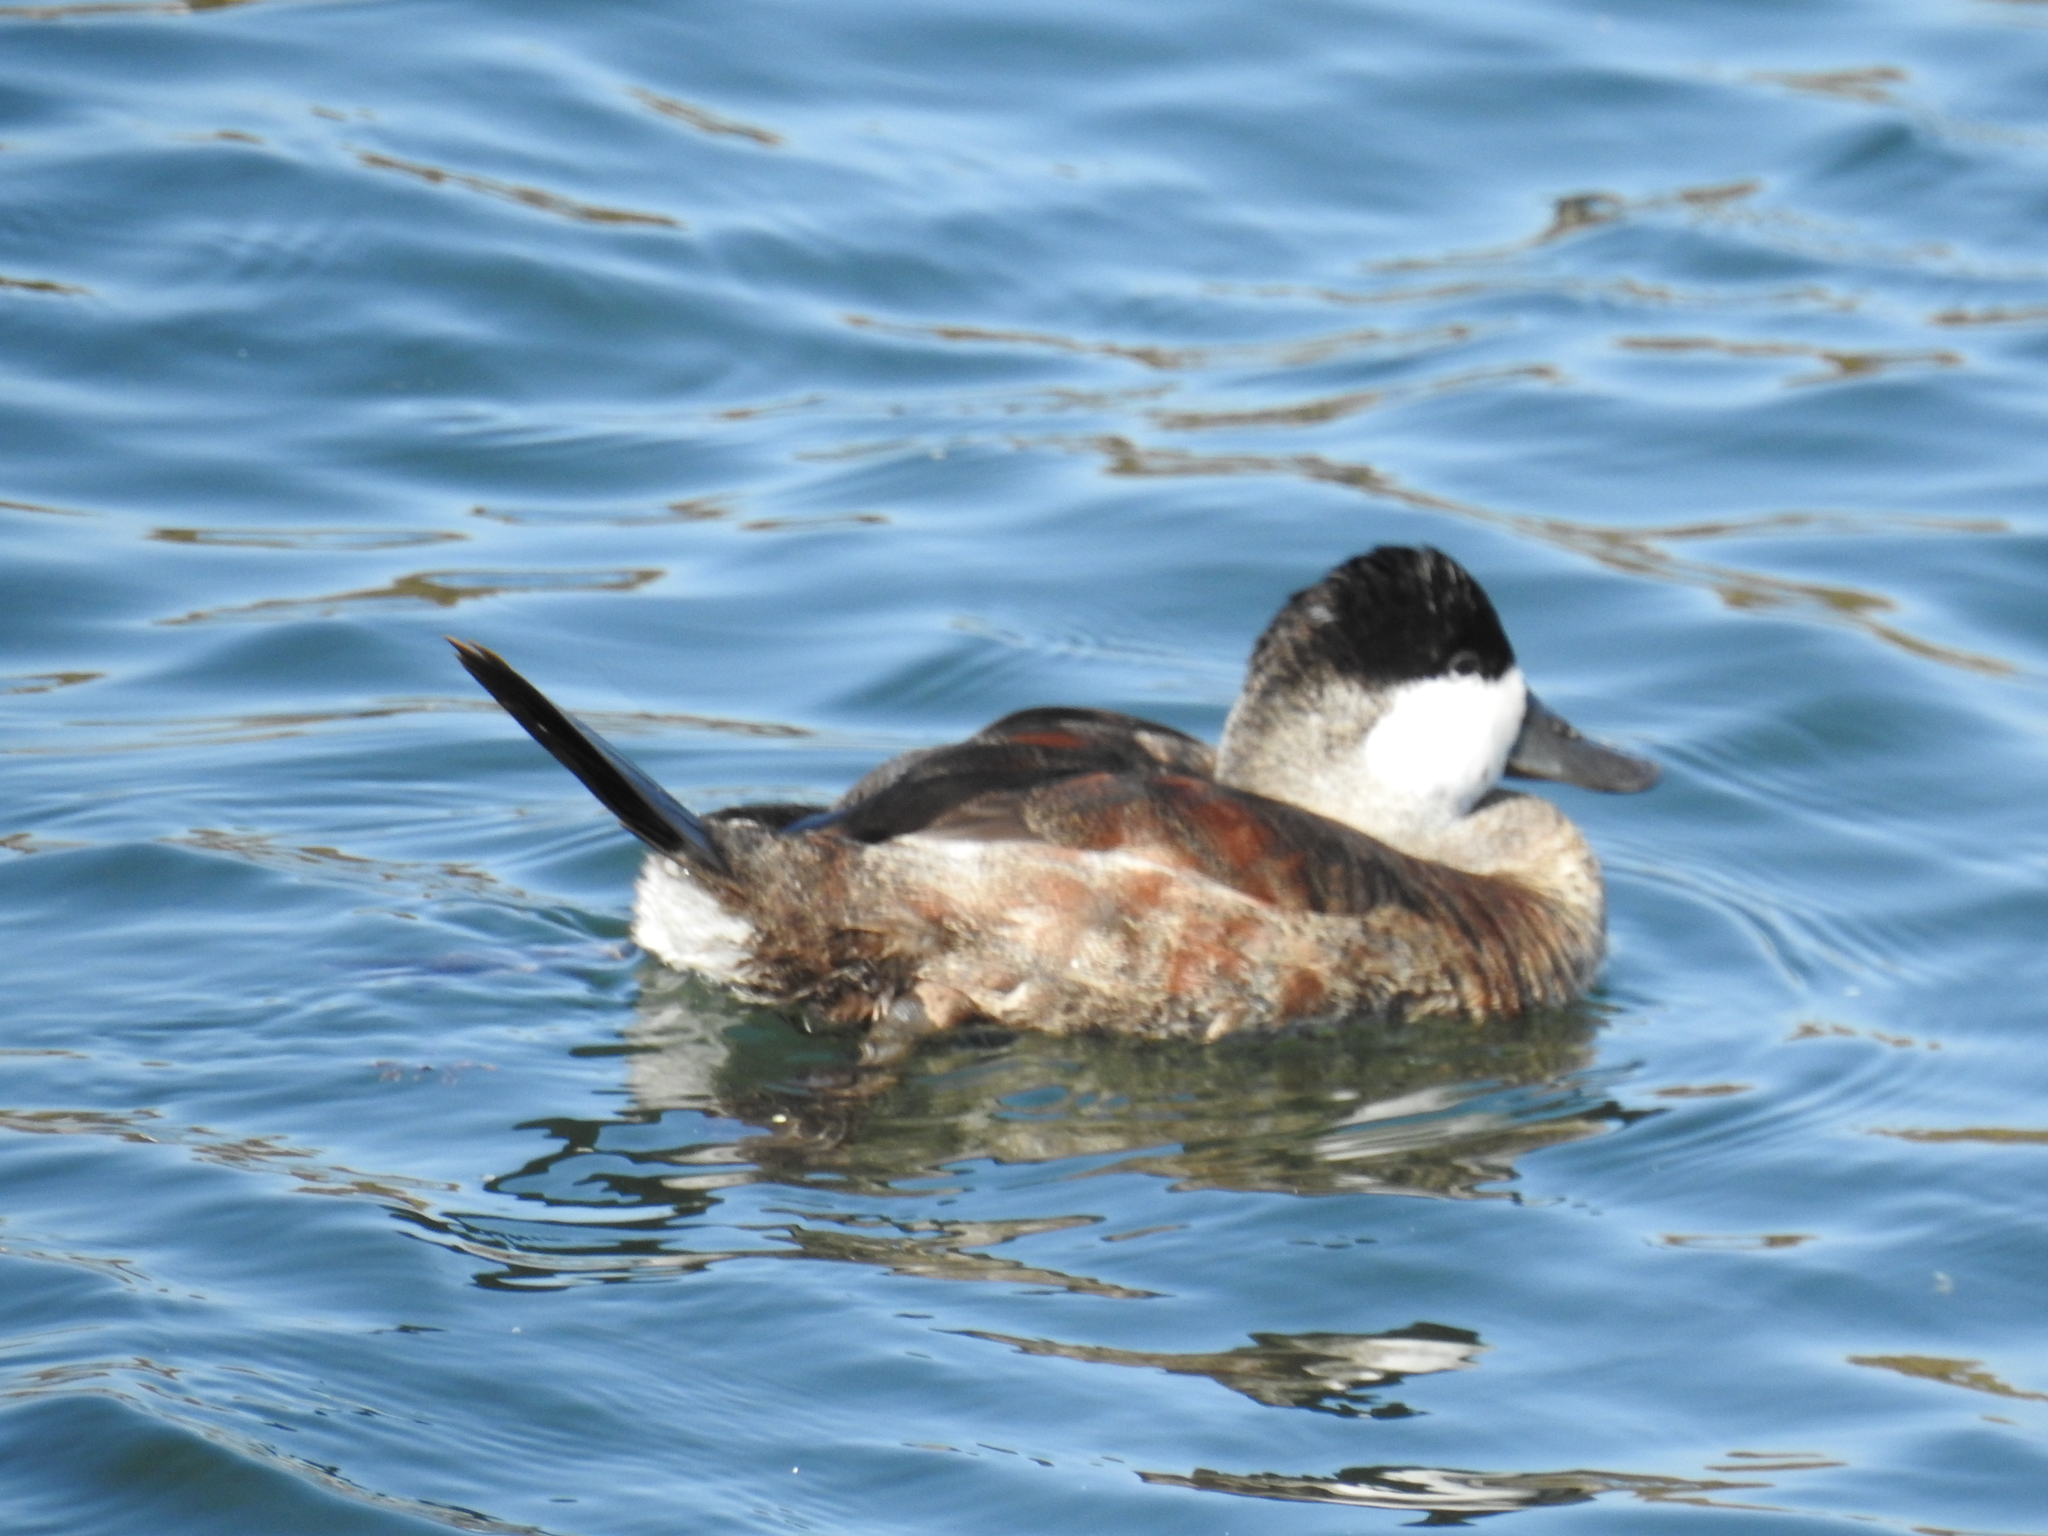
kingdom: Animalia
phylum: Chordata
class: Aves
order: Anseriformes
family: Anatidae
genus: Oxyura
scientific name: Oxyura jamaicensis
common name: Ruddy duck
